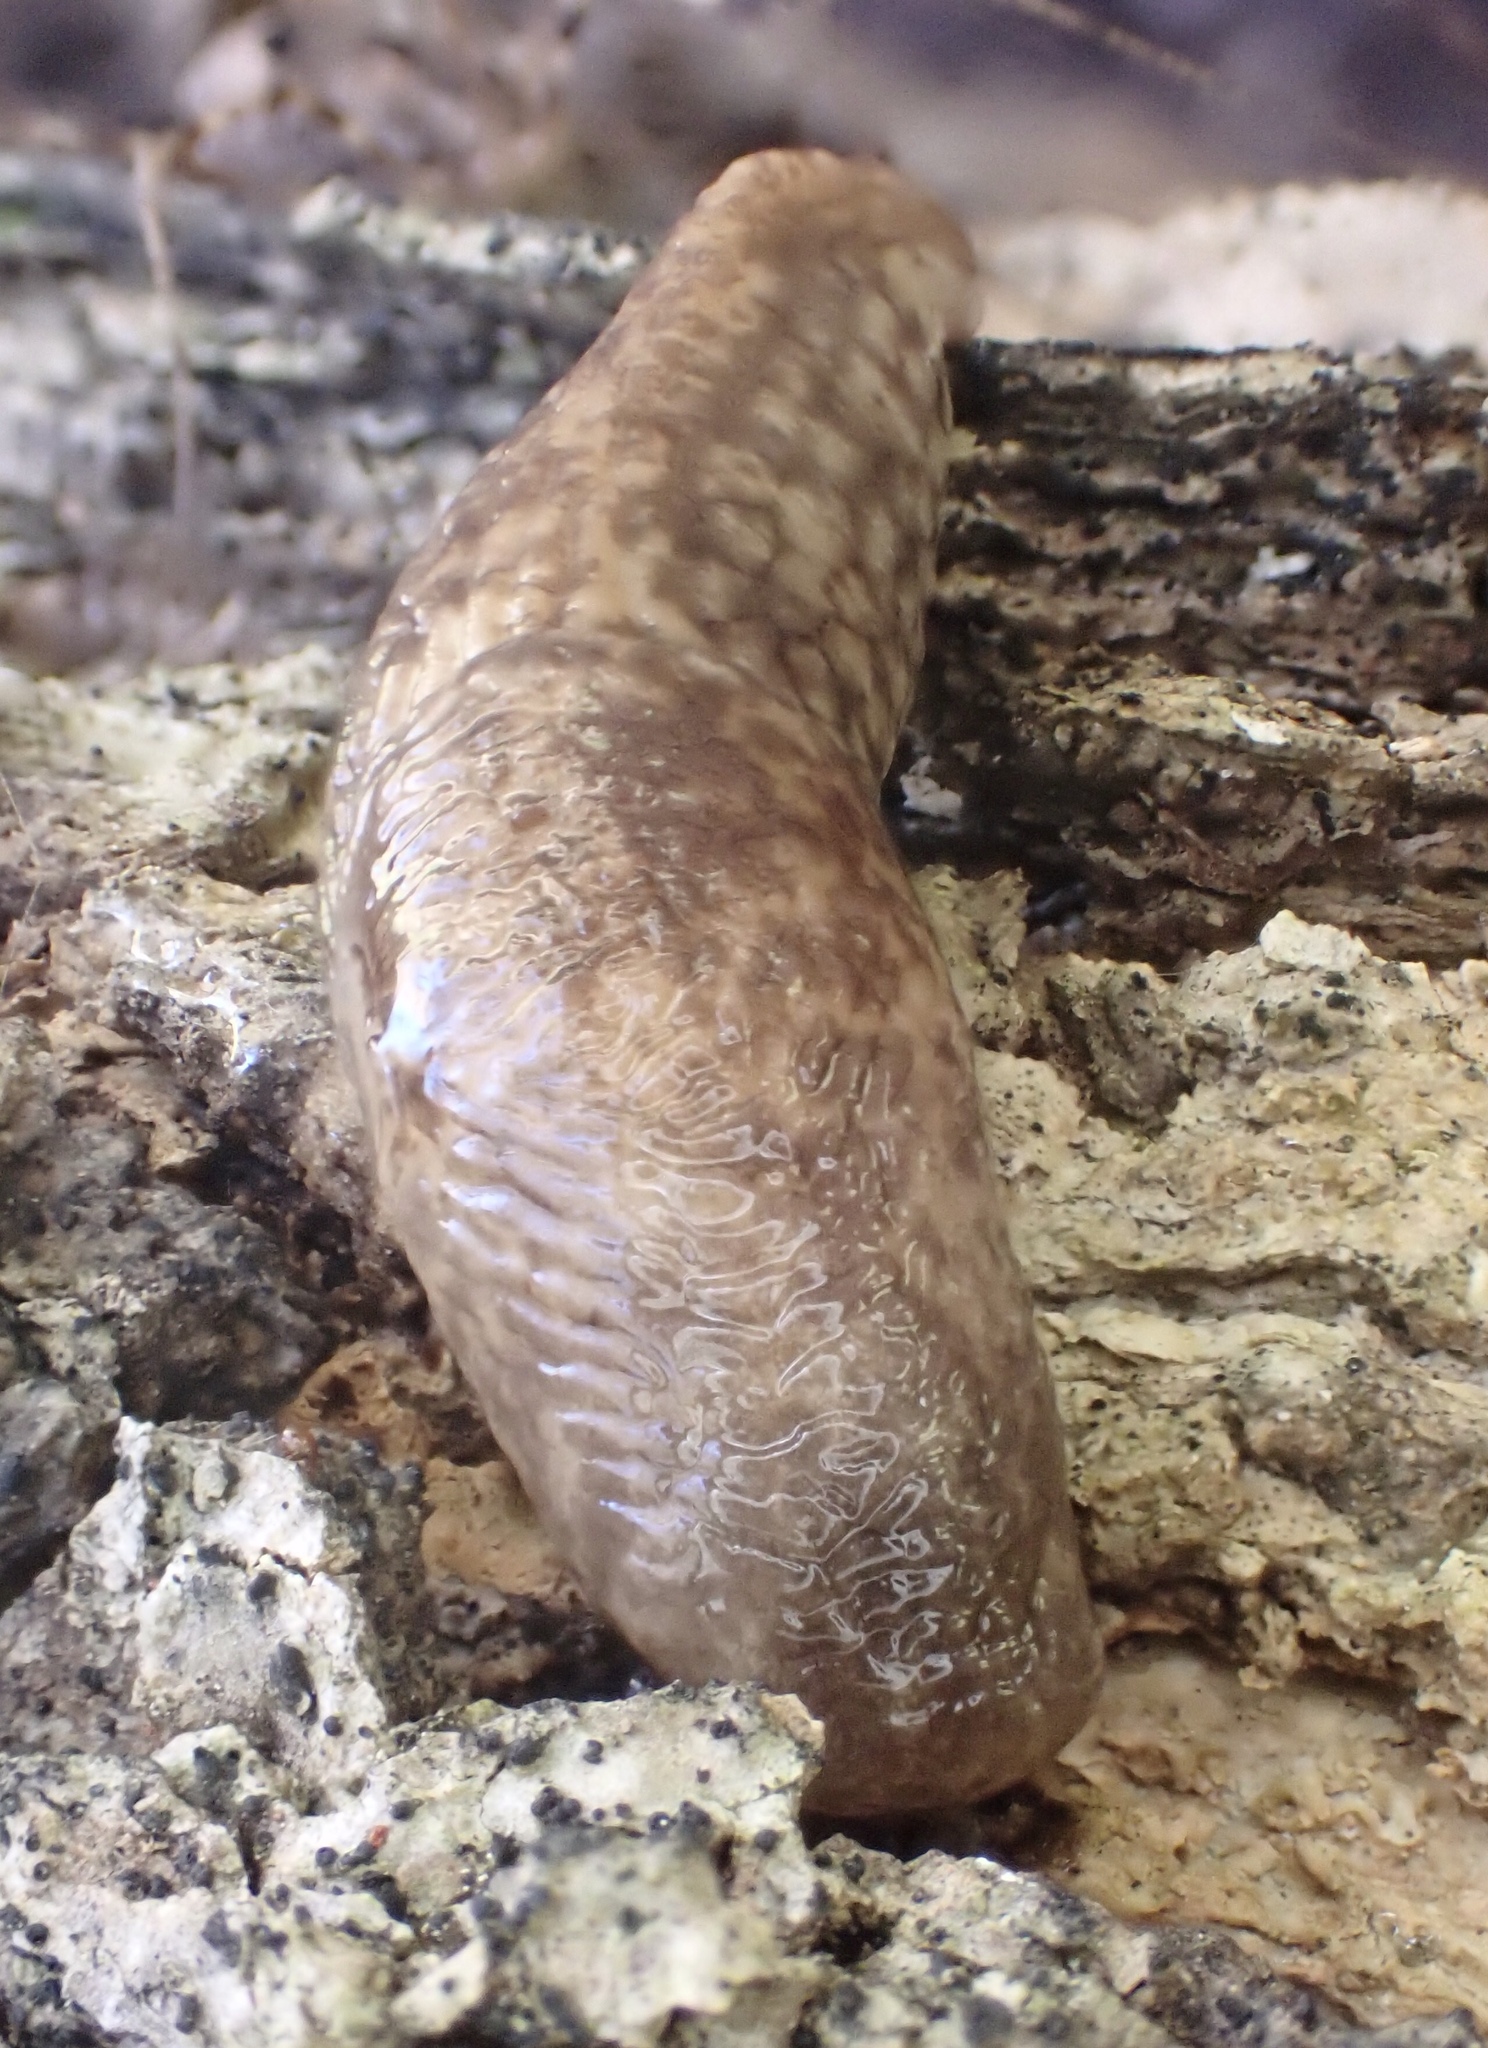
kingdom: Animalia
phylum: Mollusca
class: Gastropoda
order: Stylommatophora
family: Agriolimacidae
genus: Deroceras
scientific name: Deroceras reticulatum
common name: Gray field slug
